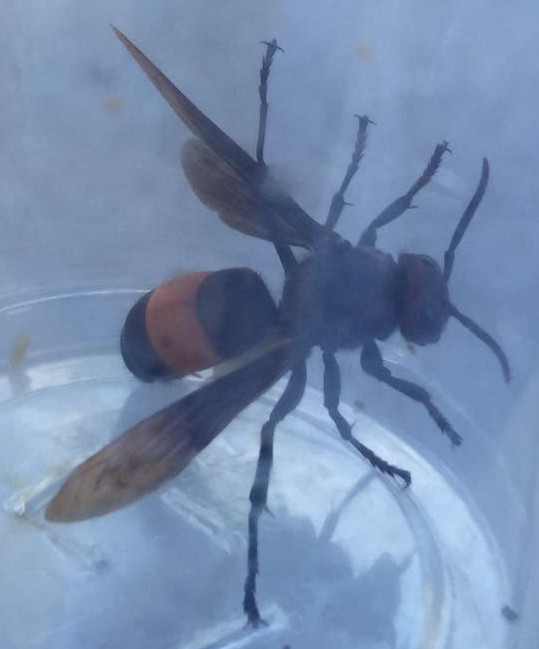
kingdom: Animalia
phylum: Arthropoda
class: Insecta
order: Hymenoptera
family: Vespidae
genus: Vespa
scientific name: Vespa tropica
